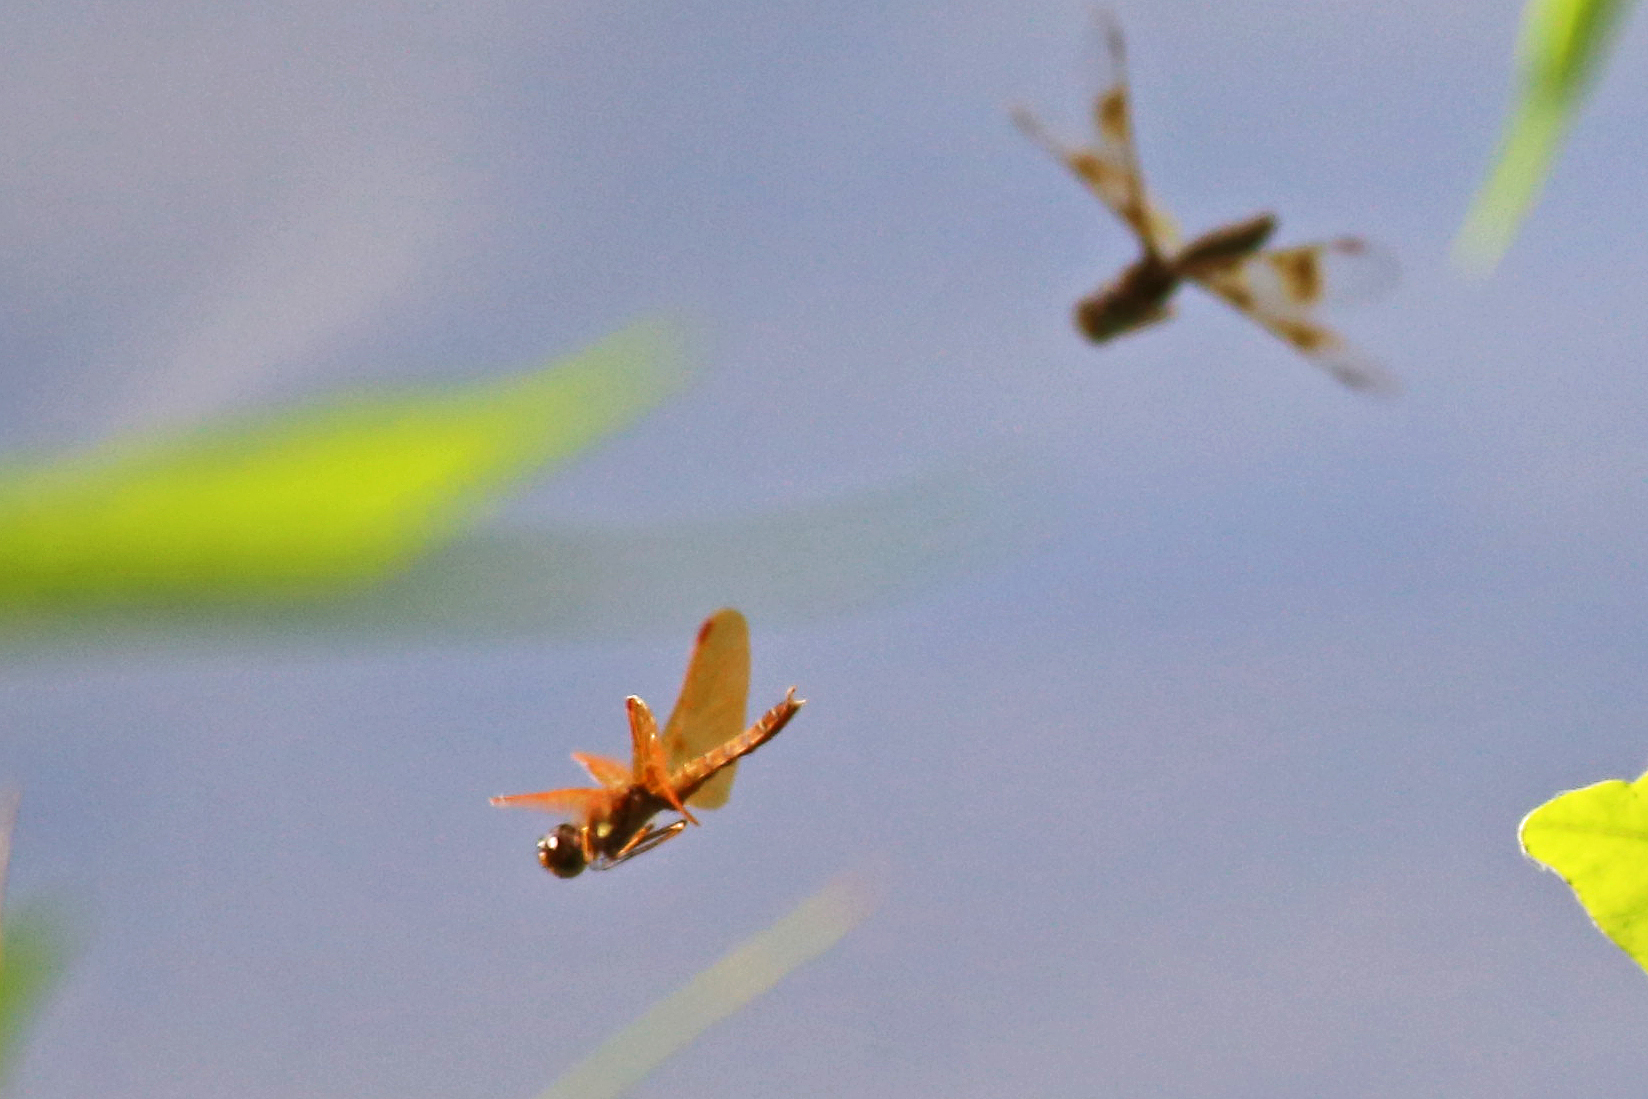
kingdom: Animalia
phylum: Arthropoda
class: Insecta
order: Odonata
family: Libellulidae
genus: Perithemis
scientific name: Perithemis tenera
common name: Eastern amberwing
